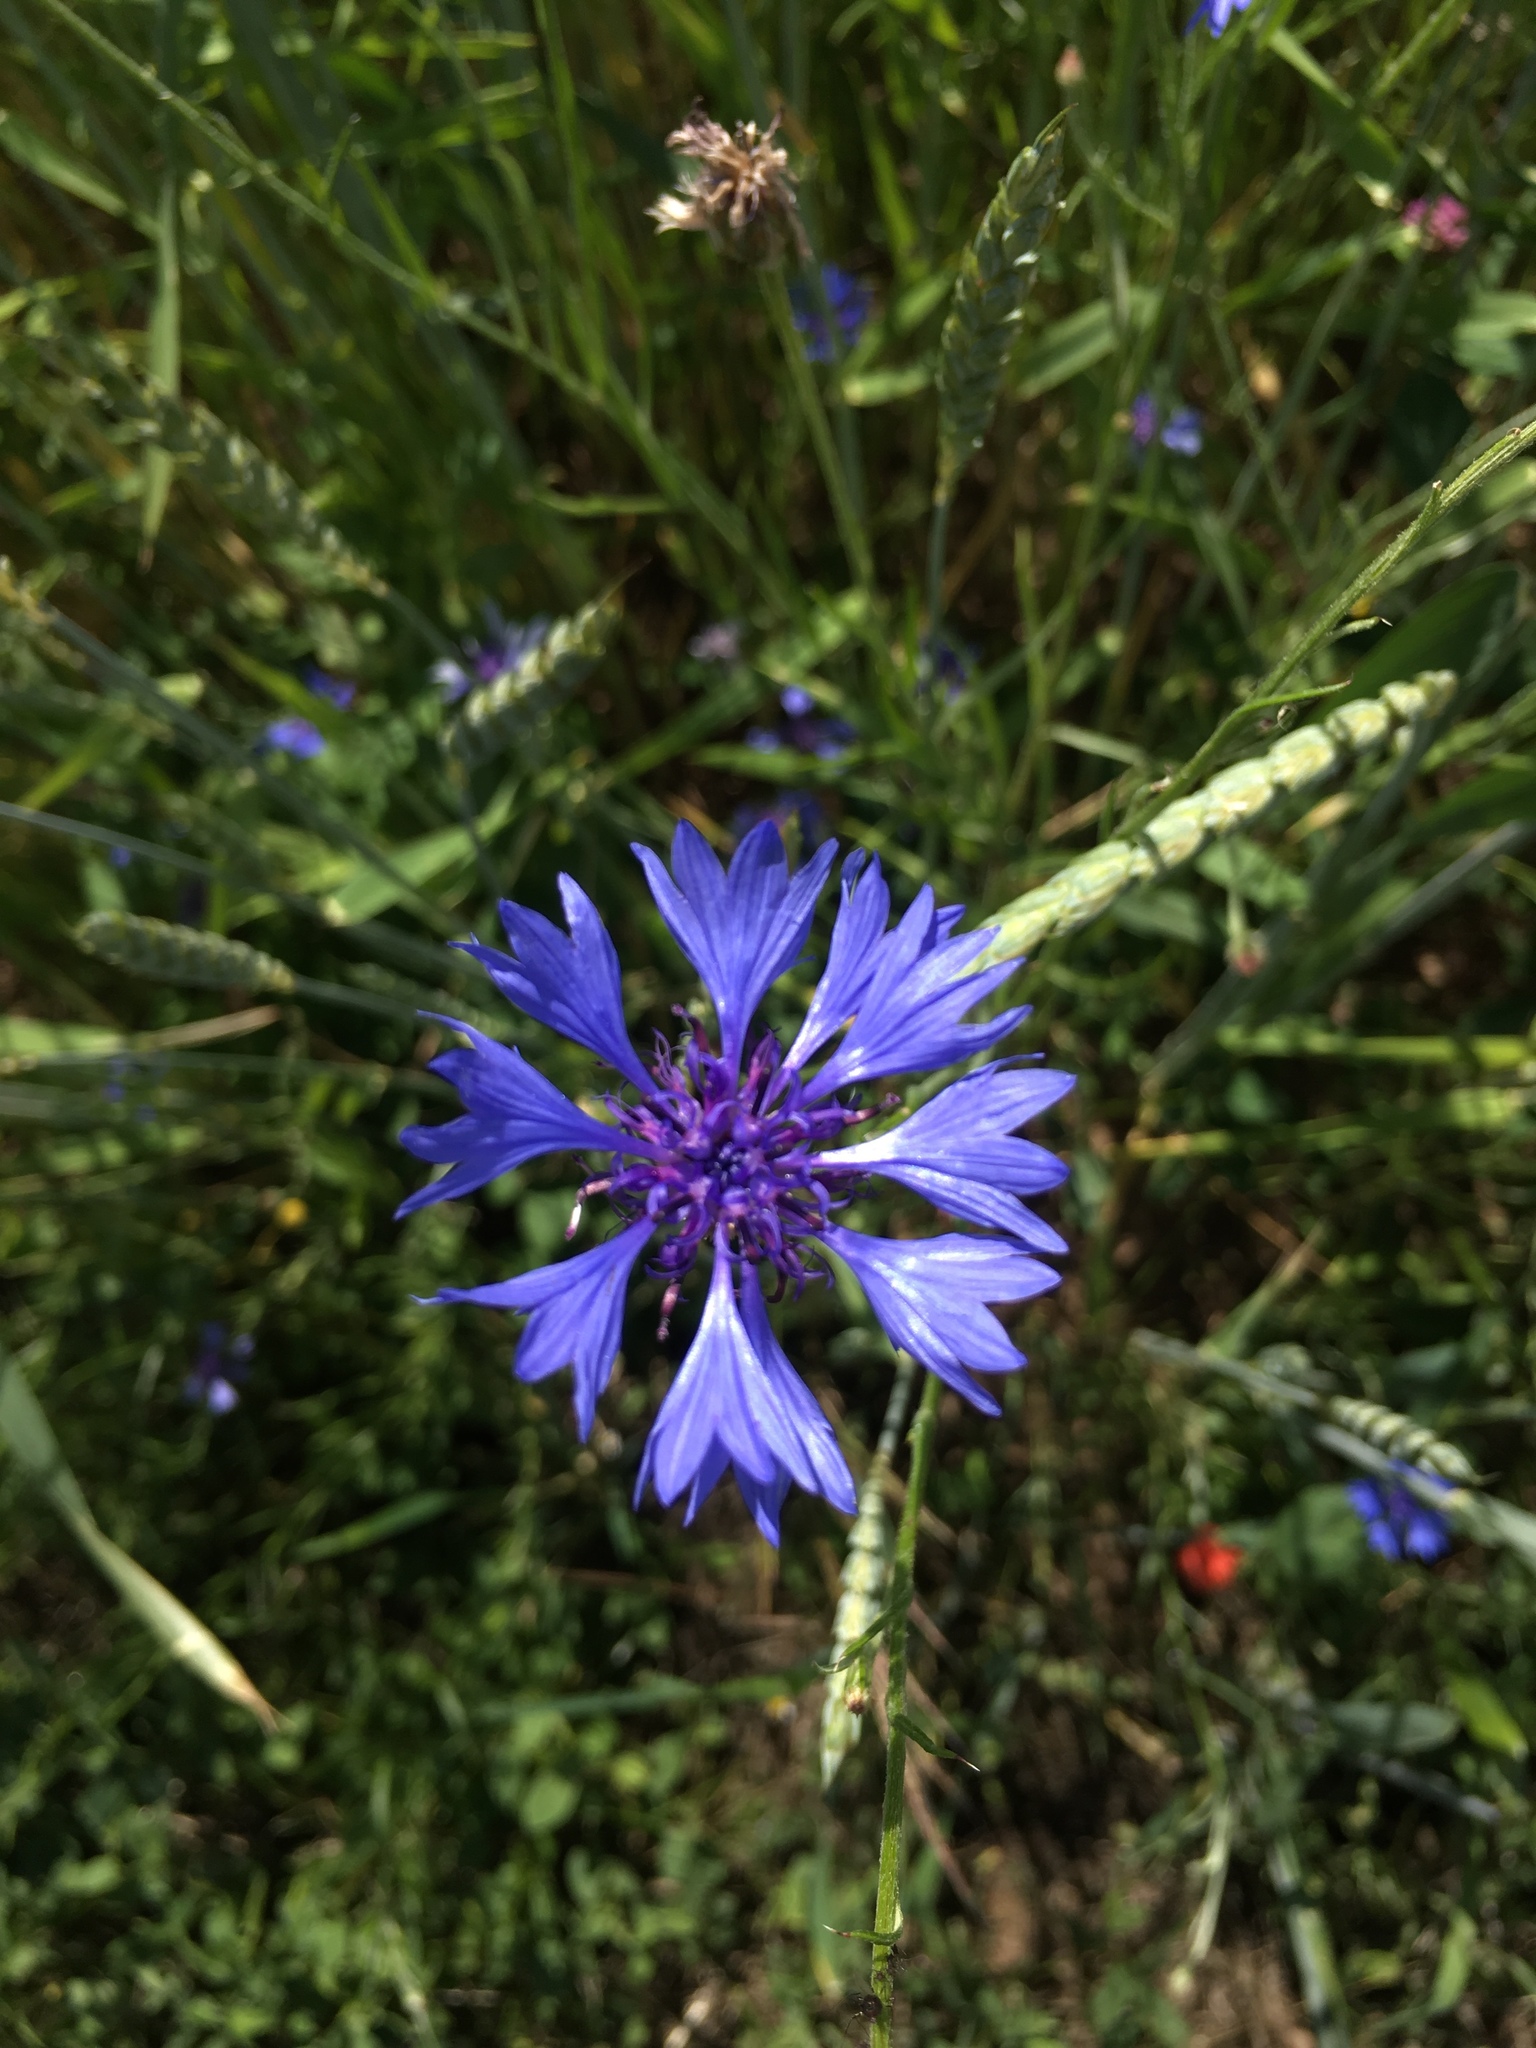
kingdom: Plantae
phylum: Tracheophyta
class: Magnoliopsida
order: Asterales
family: Asteraceae
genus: Centaurea
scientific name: Centaurea cyanus
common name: Cornflower
